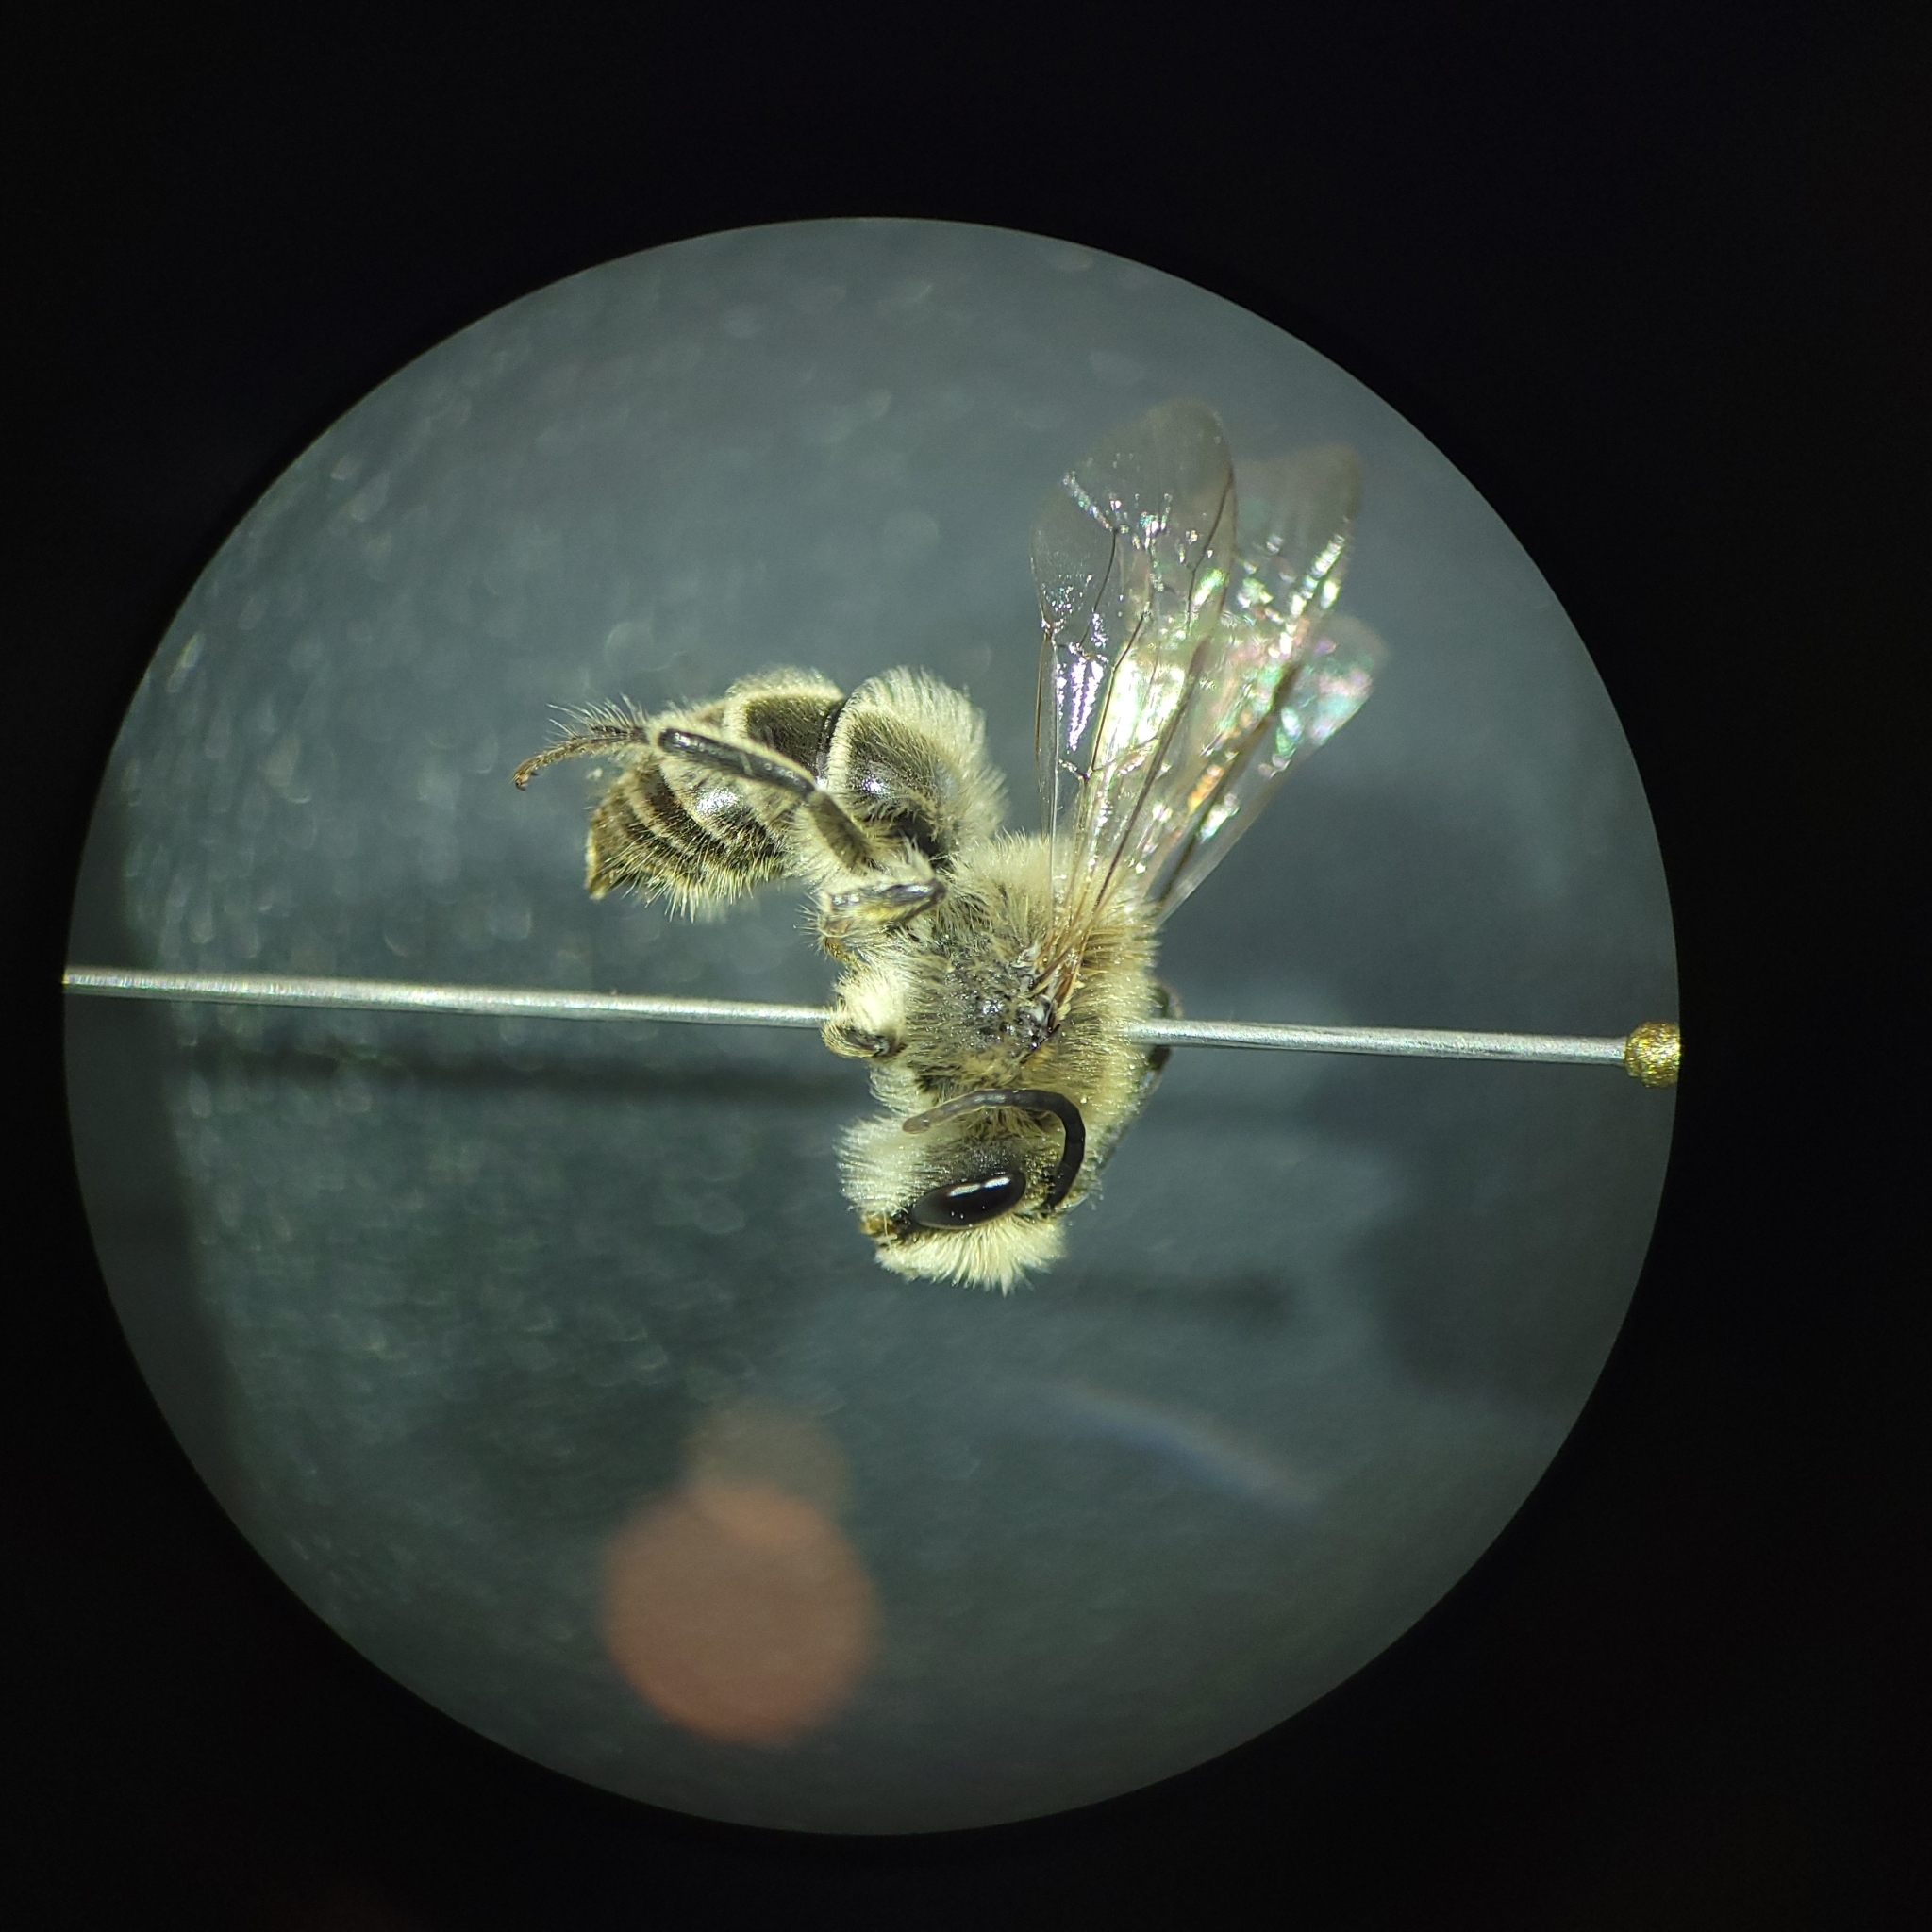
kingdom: Animalia
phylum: Arthropoda
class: Insecta
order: Hymenoptera
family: Colletidae
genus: Colletes
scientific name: Colletes inaequalis
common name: Unequal cellophane bee
